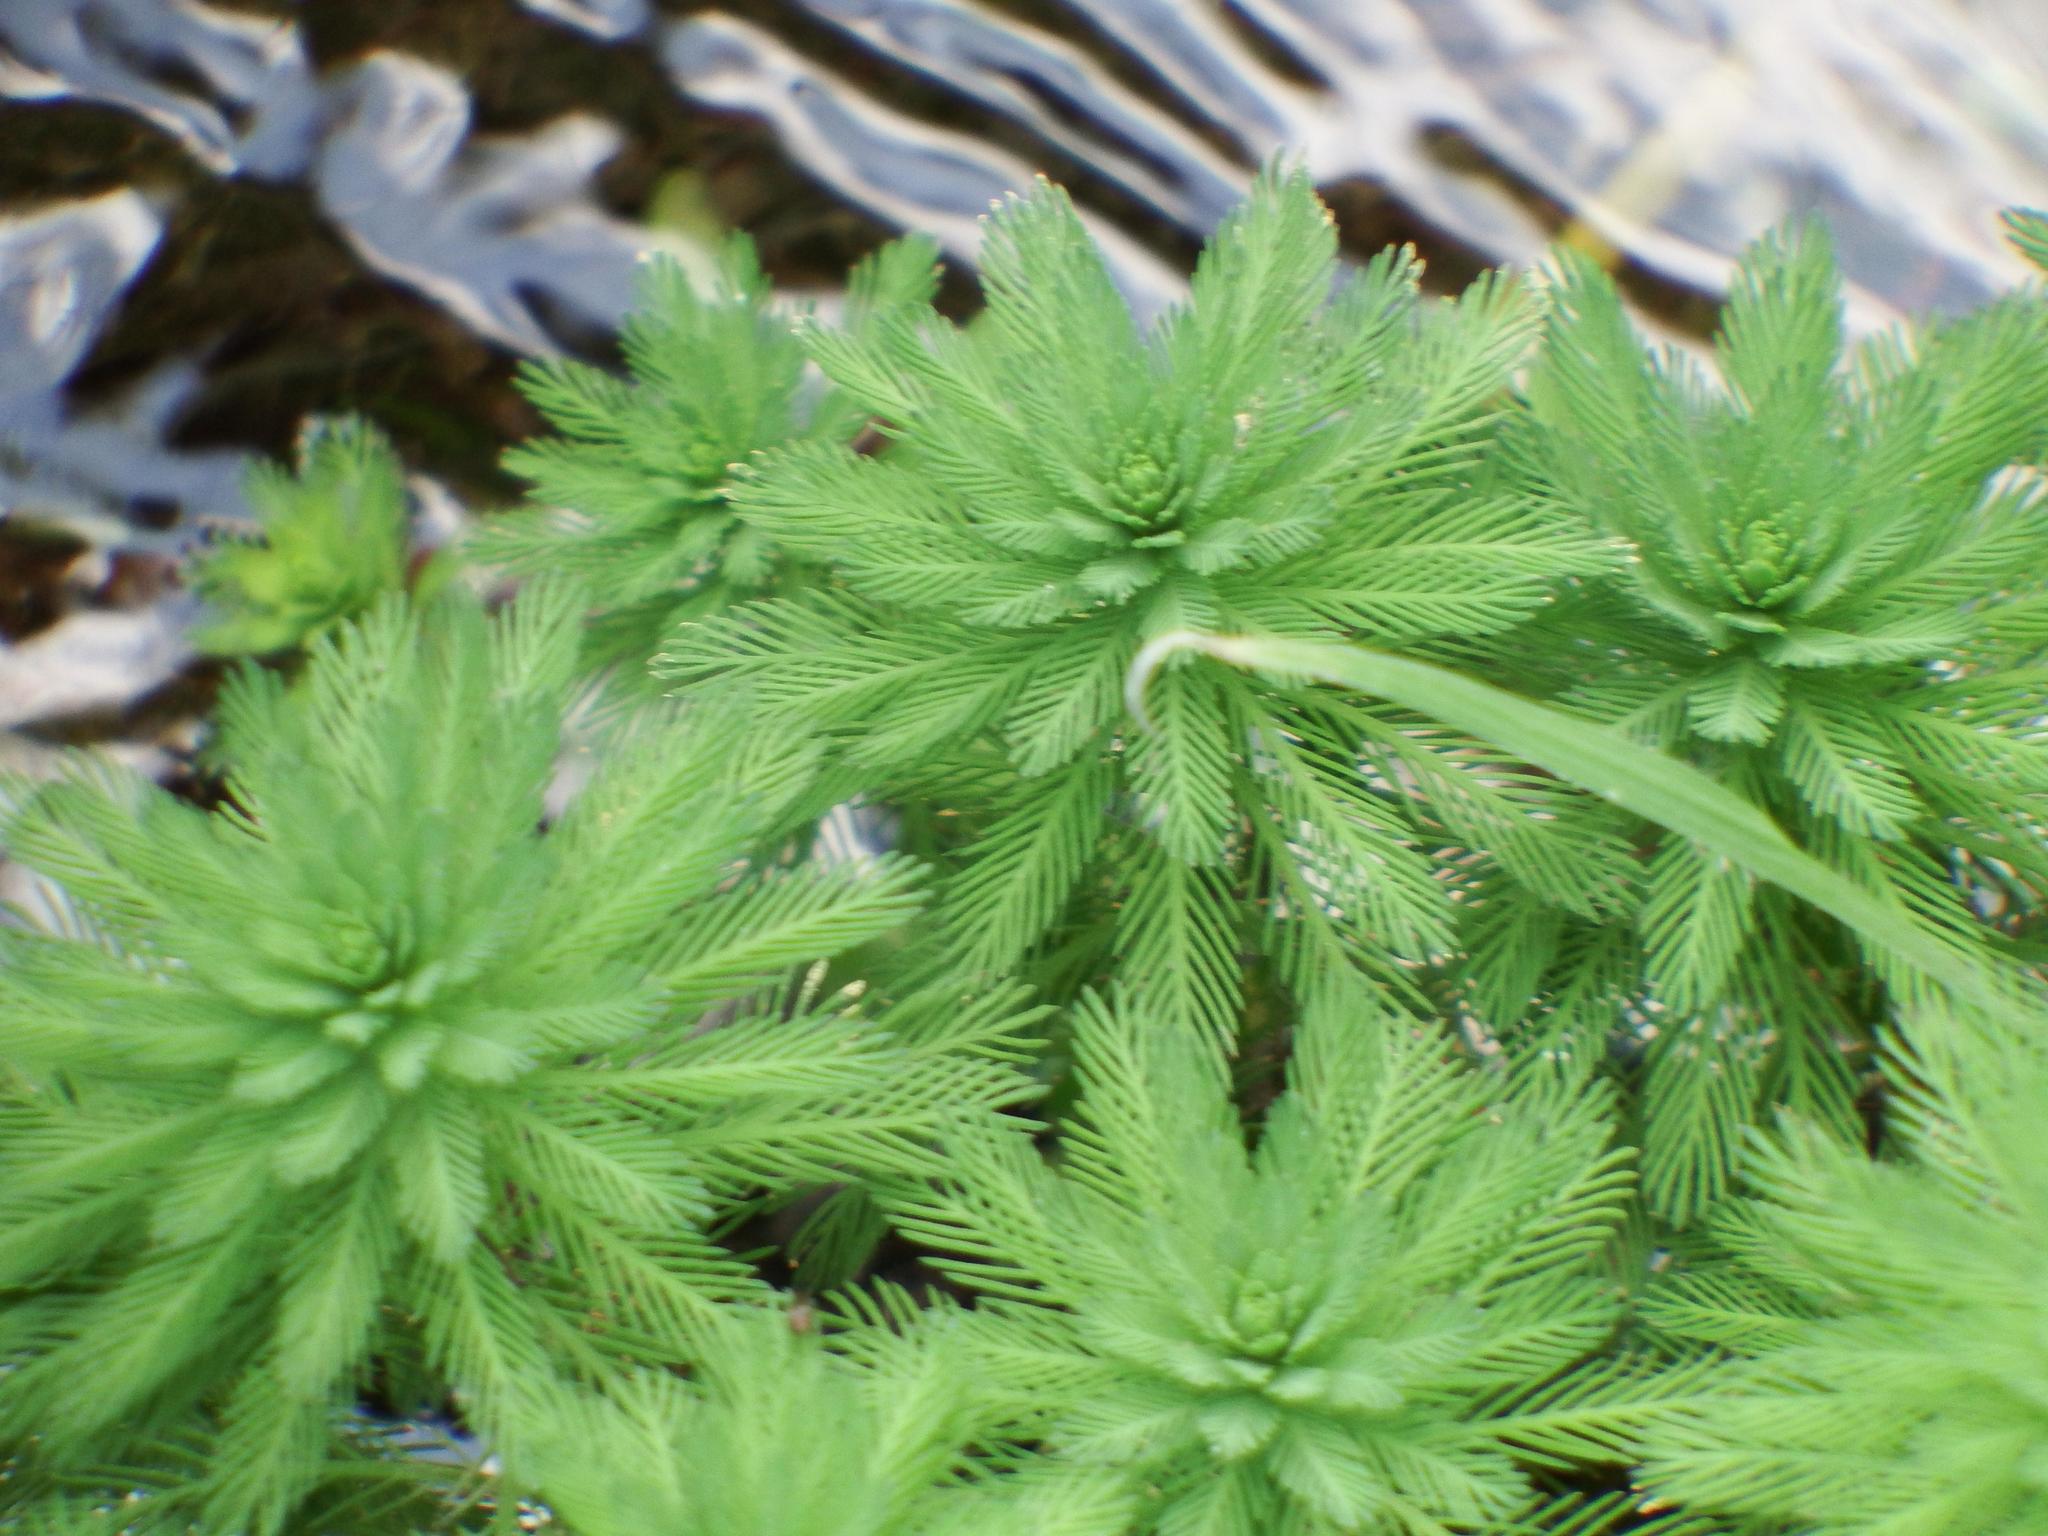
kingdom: Plantae
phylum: Tracheophyta
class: Magnoliopsida
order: Saxifragales
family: Haloragaceae
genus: Myriophyllum
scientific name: Myriophyllum aquaticum
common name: Parrot's feather
